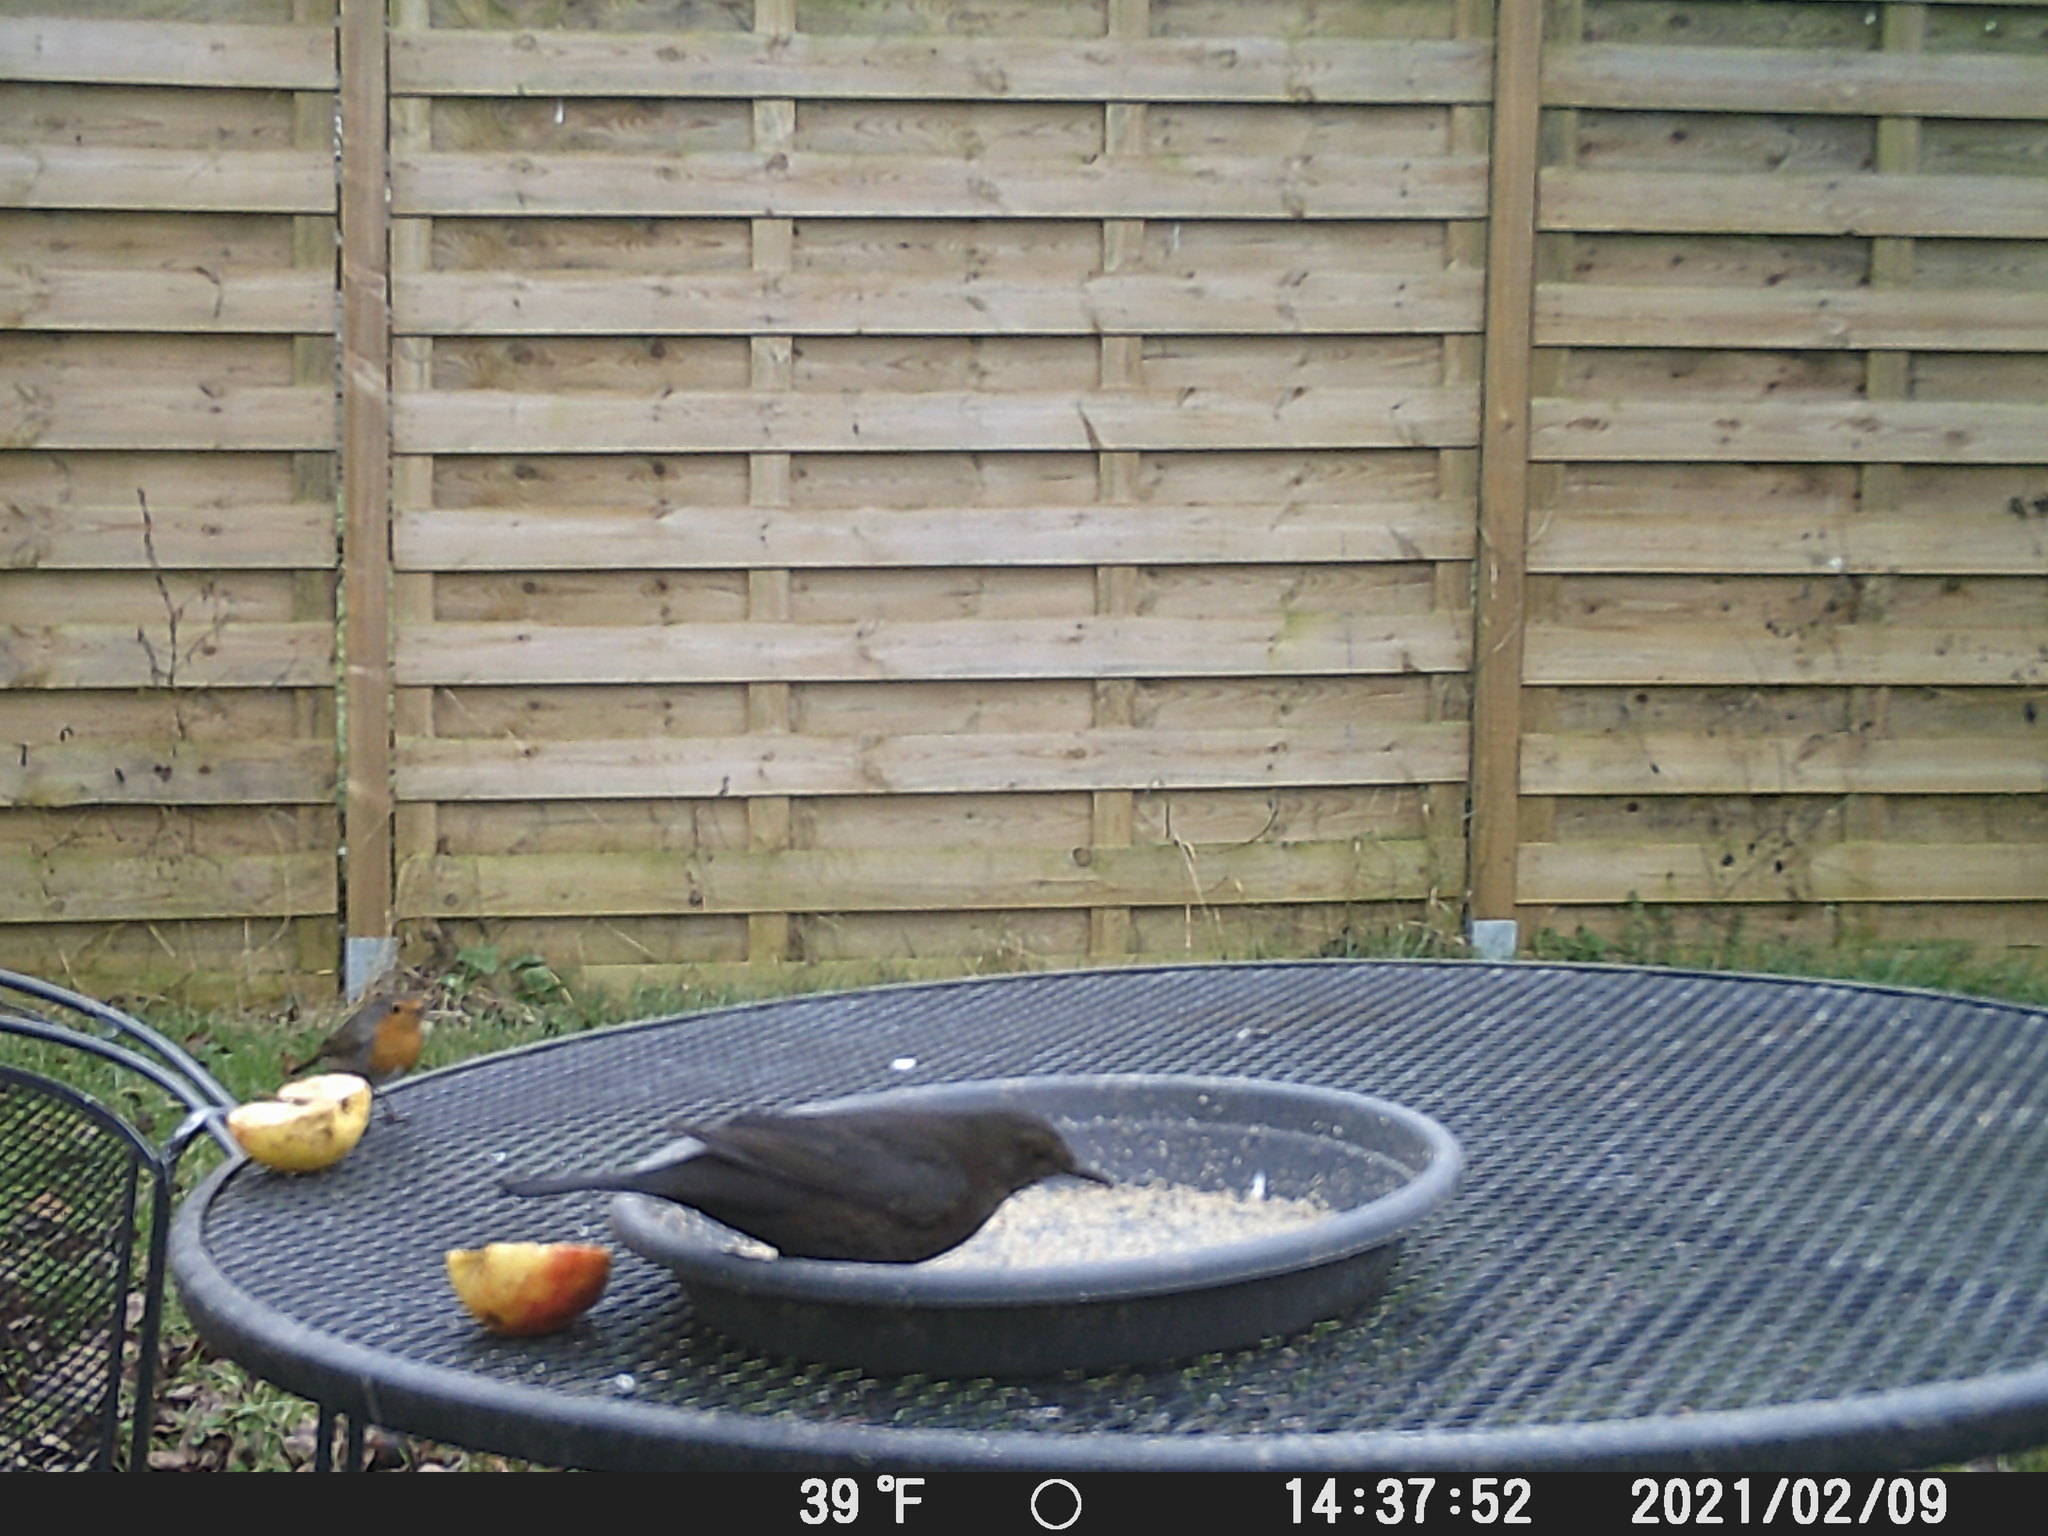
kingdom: Animalia
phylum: Chordata
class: Aves
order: Passeriformes
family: Turdidae
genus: Turdus
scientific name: Turdus merula
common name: Common blackbird
